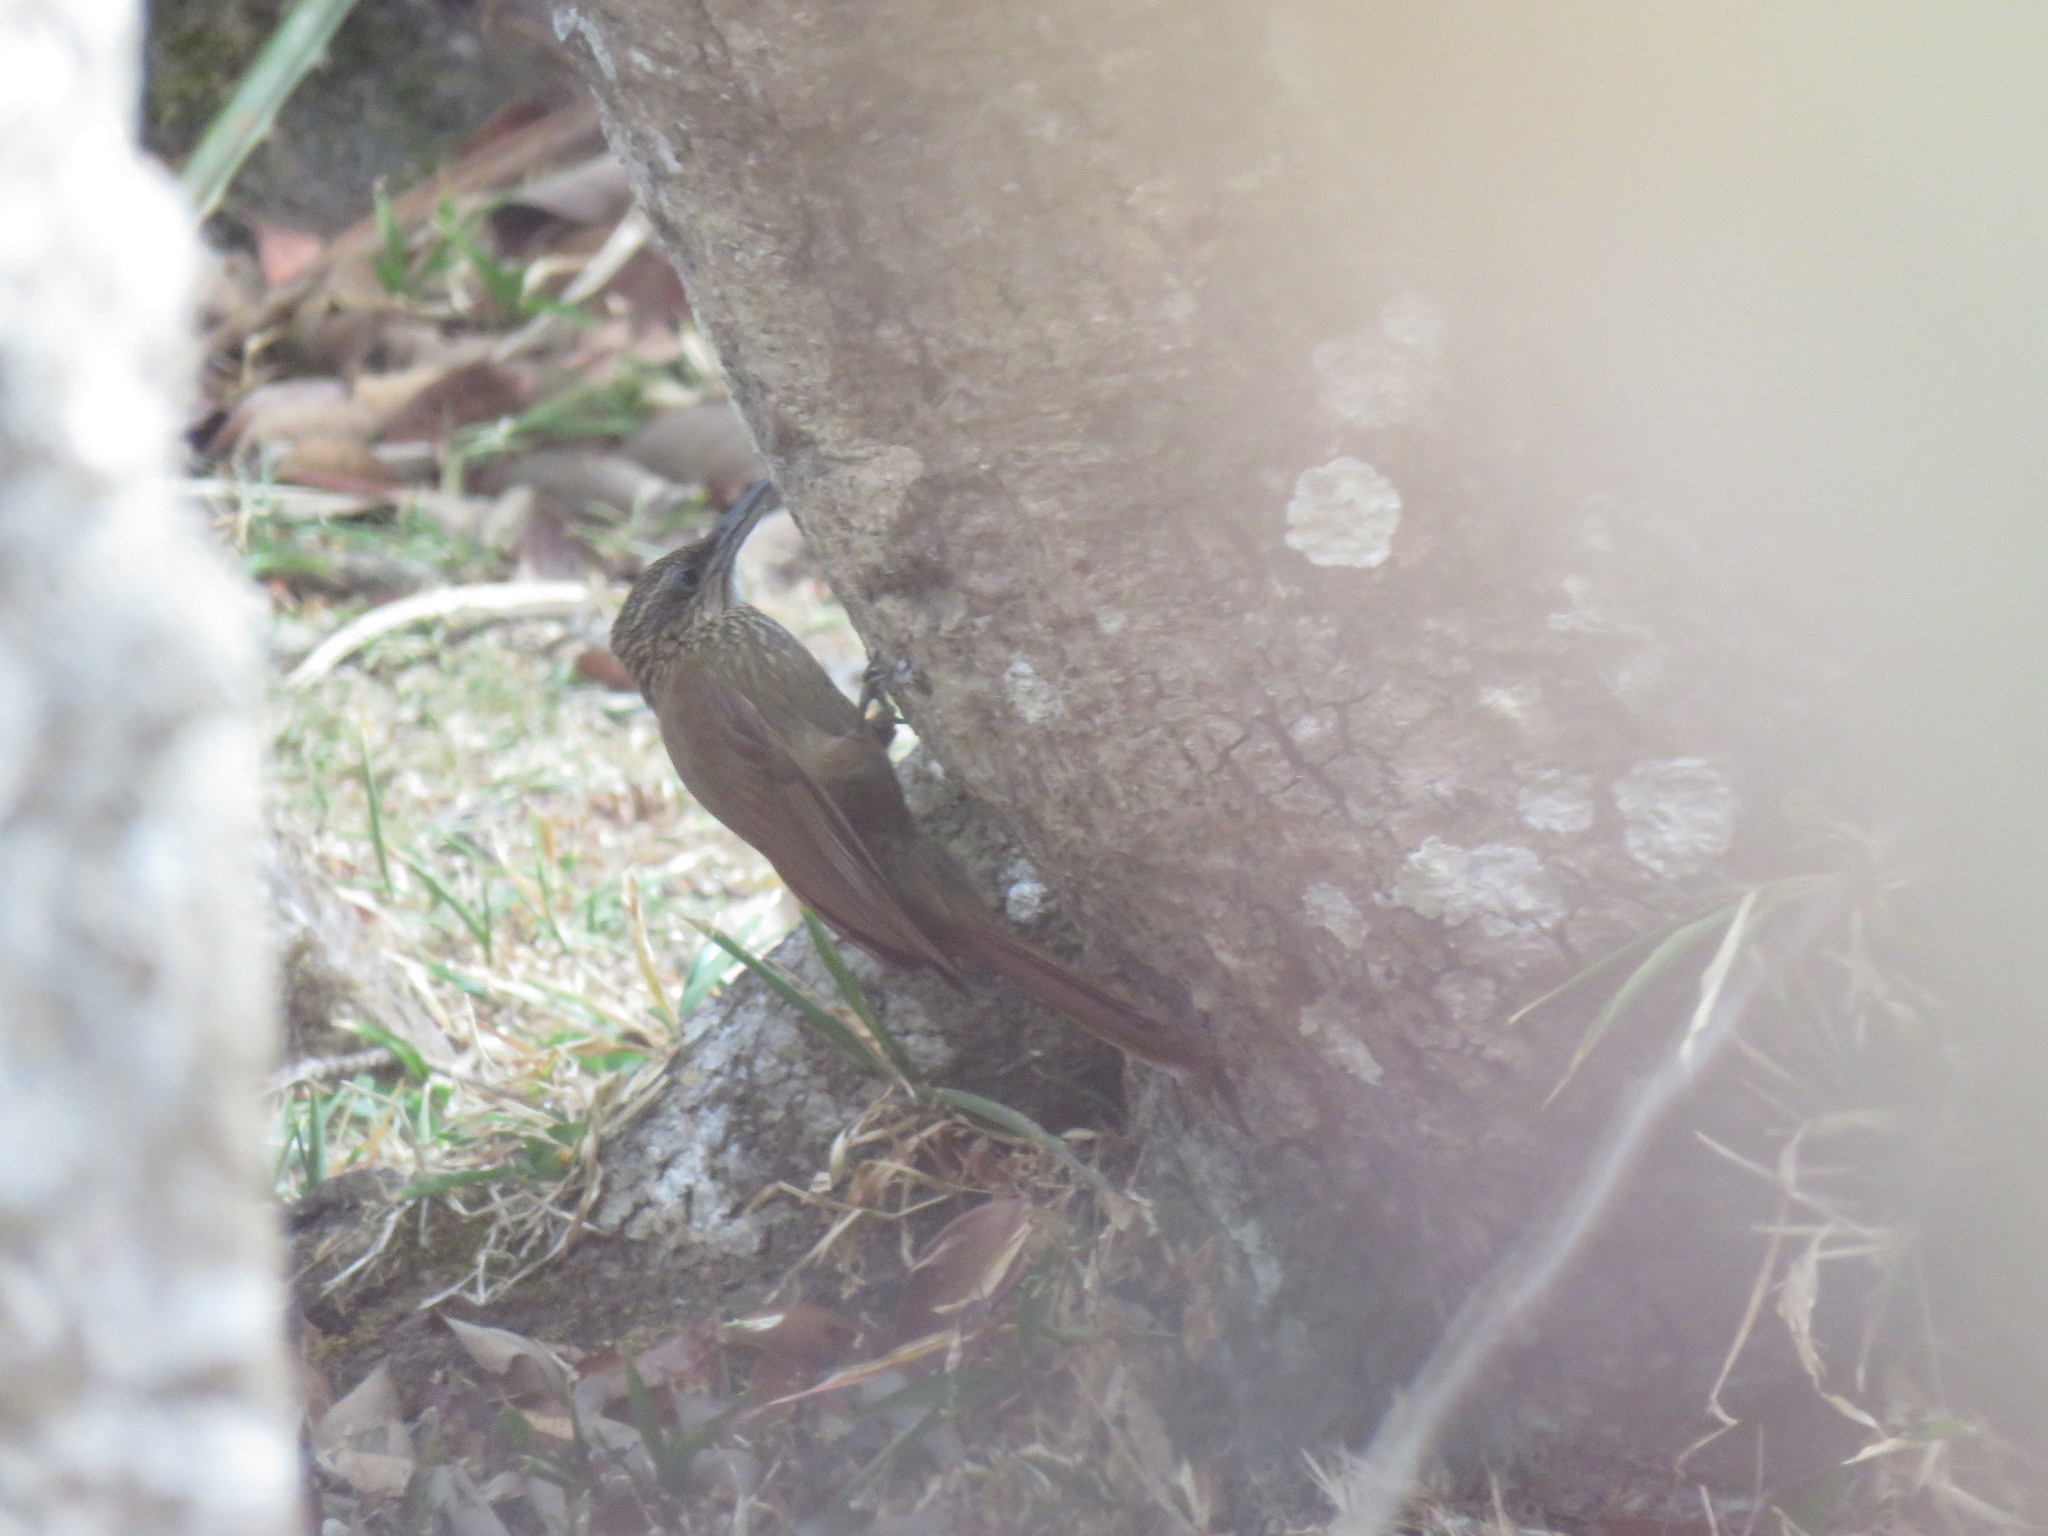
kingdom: Animalia
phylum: Chordata
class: Aves
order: Passeriformes
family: Furnariidae
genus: Xiphorhynchus
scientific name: Xiphorhynchus susurrans
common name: Cocoa woodcreeper
